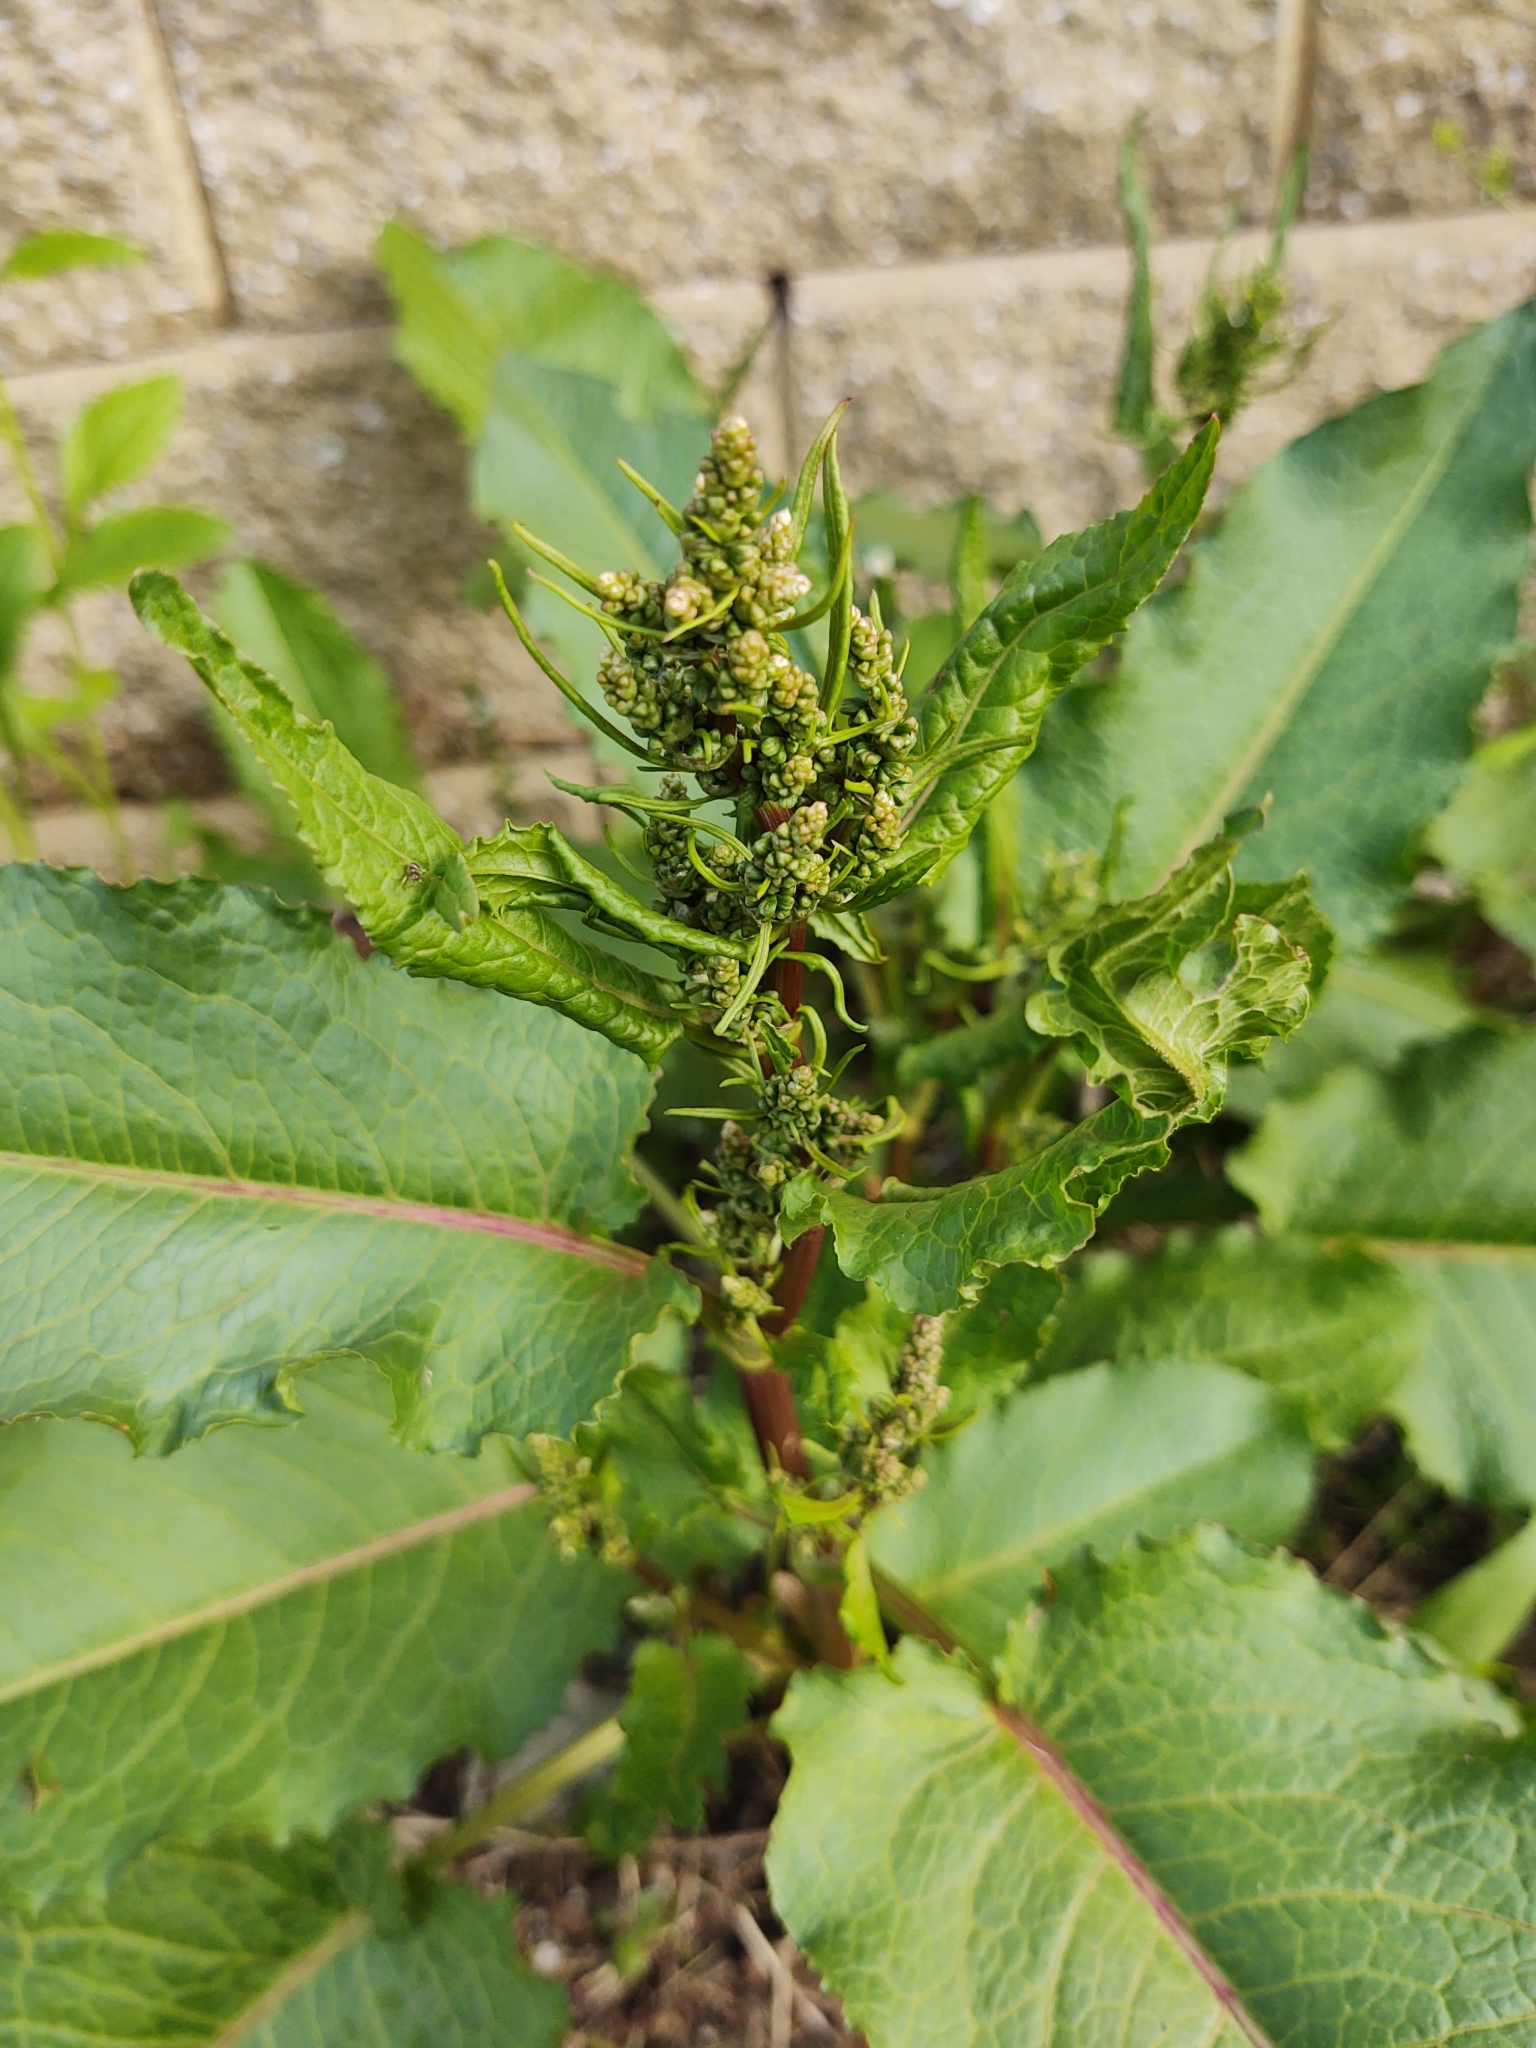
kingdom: Plantae
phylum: Tracheophyta
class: Magnoliopsida
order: Caryophyllales
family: Polygonaceae
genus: Rumex
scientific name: Rumex obtusifolius
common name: Bitter dock
